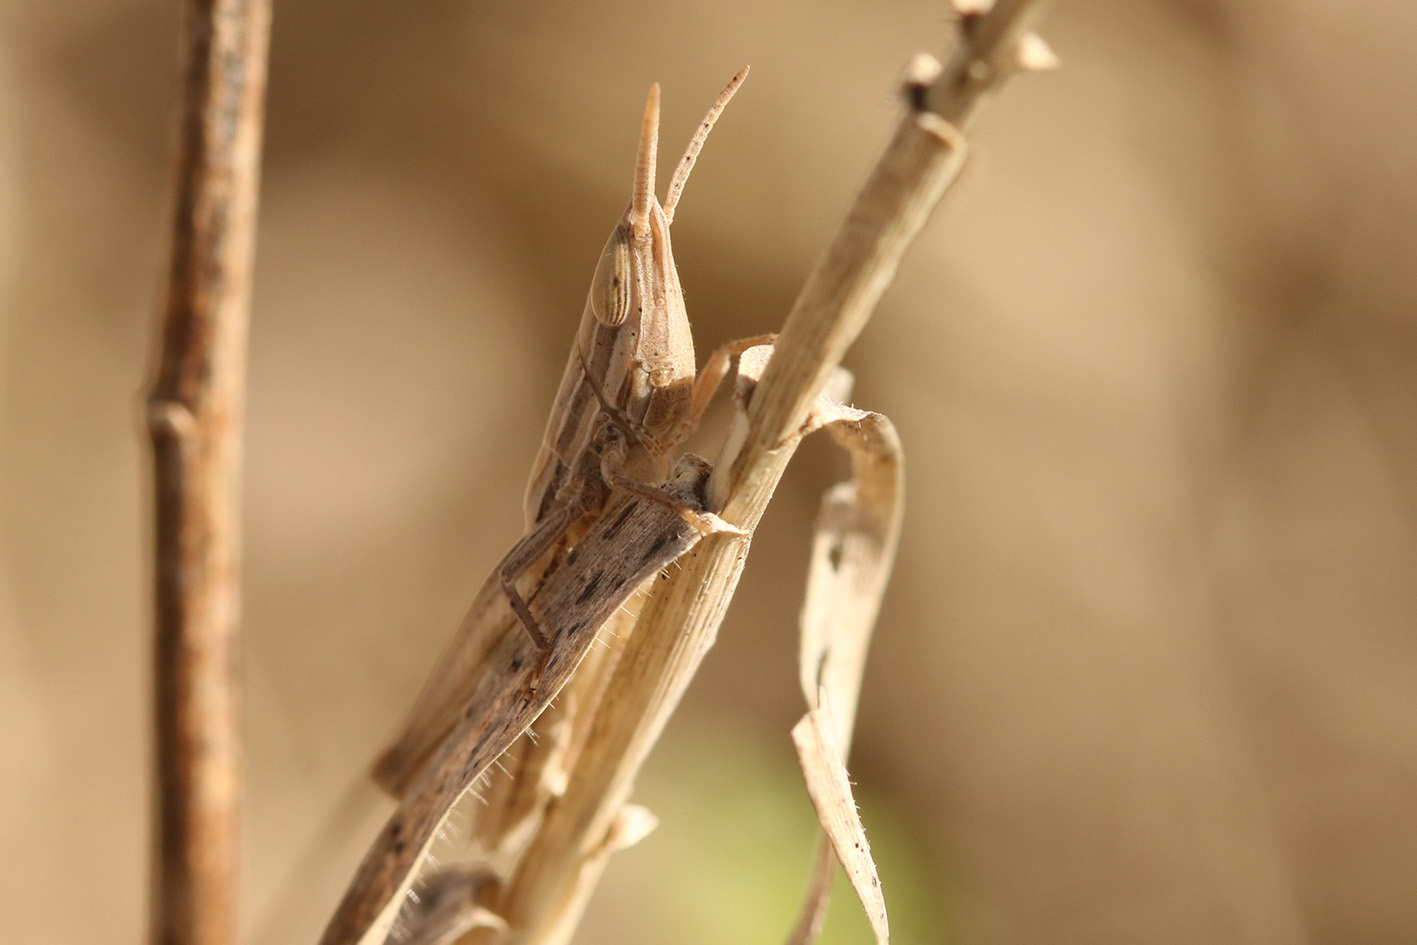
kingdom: Animalia
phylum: Arthropoda
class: Insecta
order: Orthoptera
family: Acrididae
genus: Sinipta
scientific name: Sinipta dalmani
